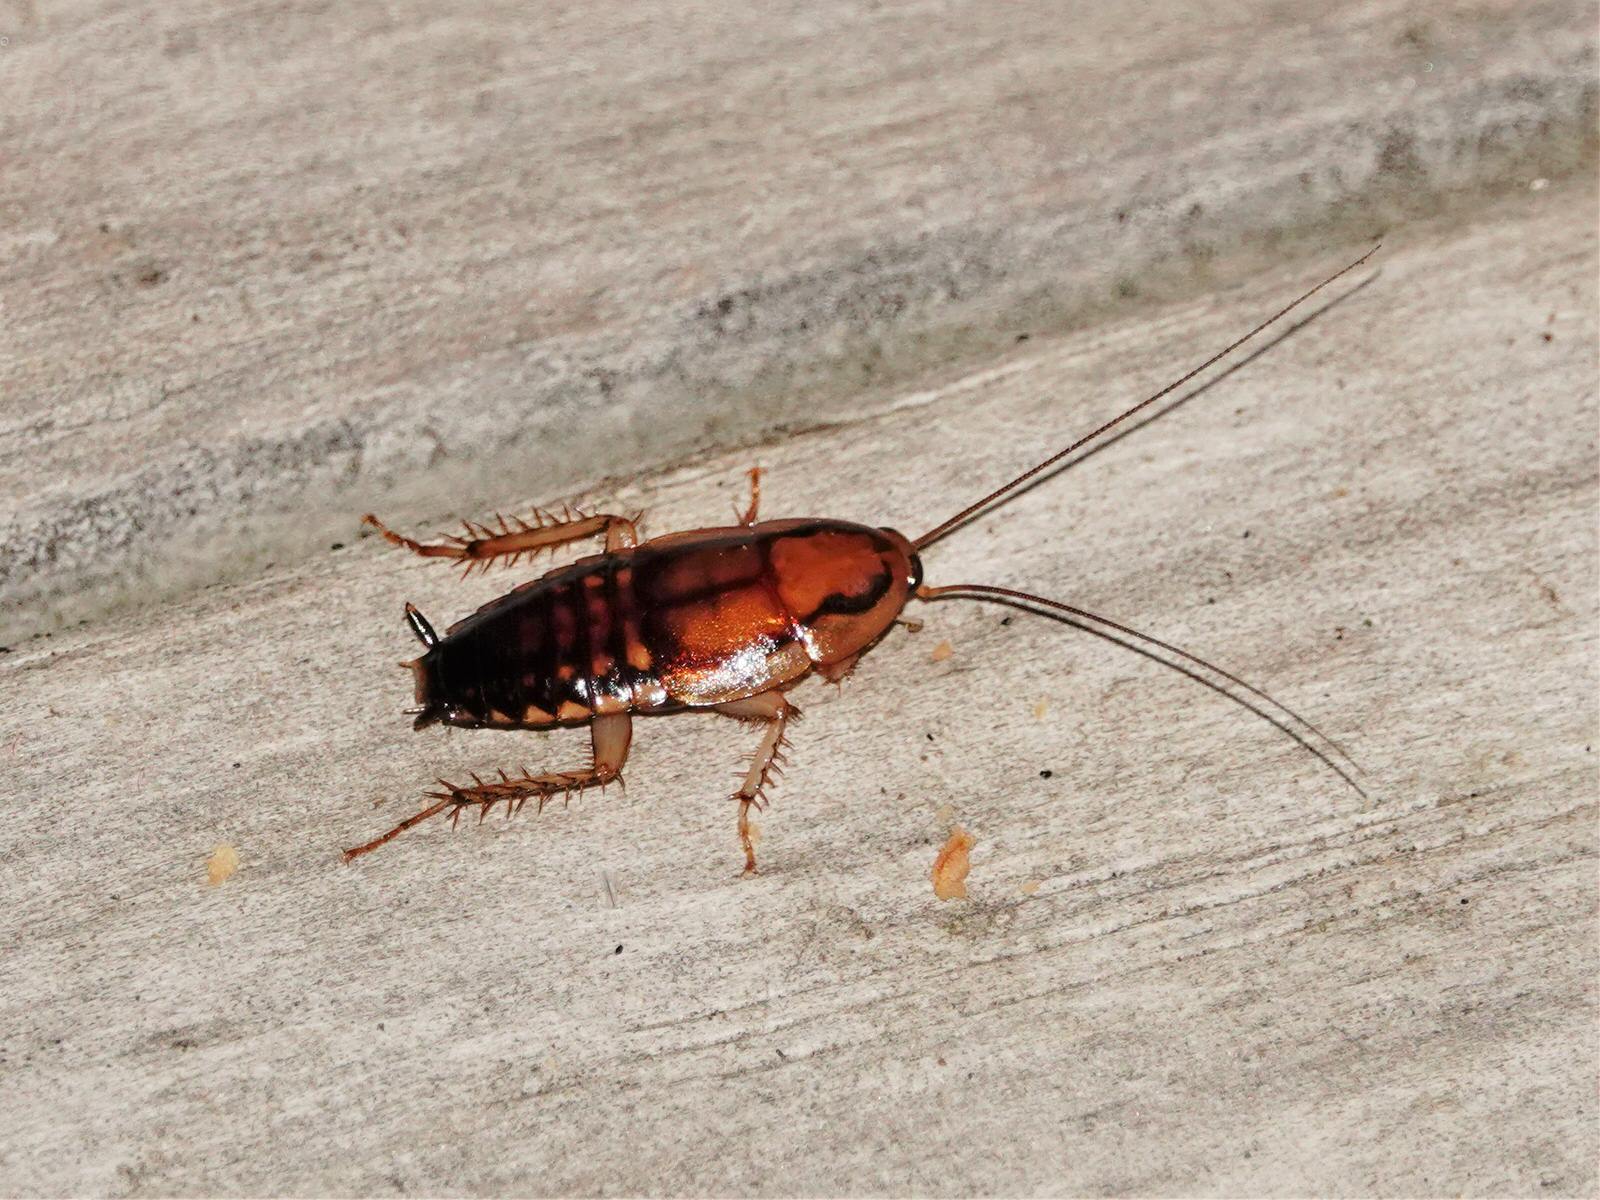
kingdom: Animalia
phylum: Arthropoda
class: Insecta
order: Blattodea
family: Blattidae
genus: Drymaplaneta
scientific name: Drymaplaneta heydeniana
